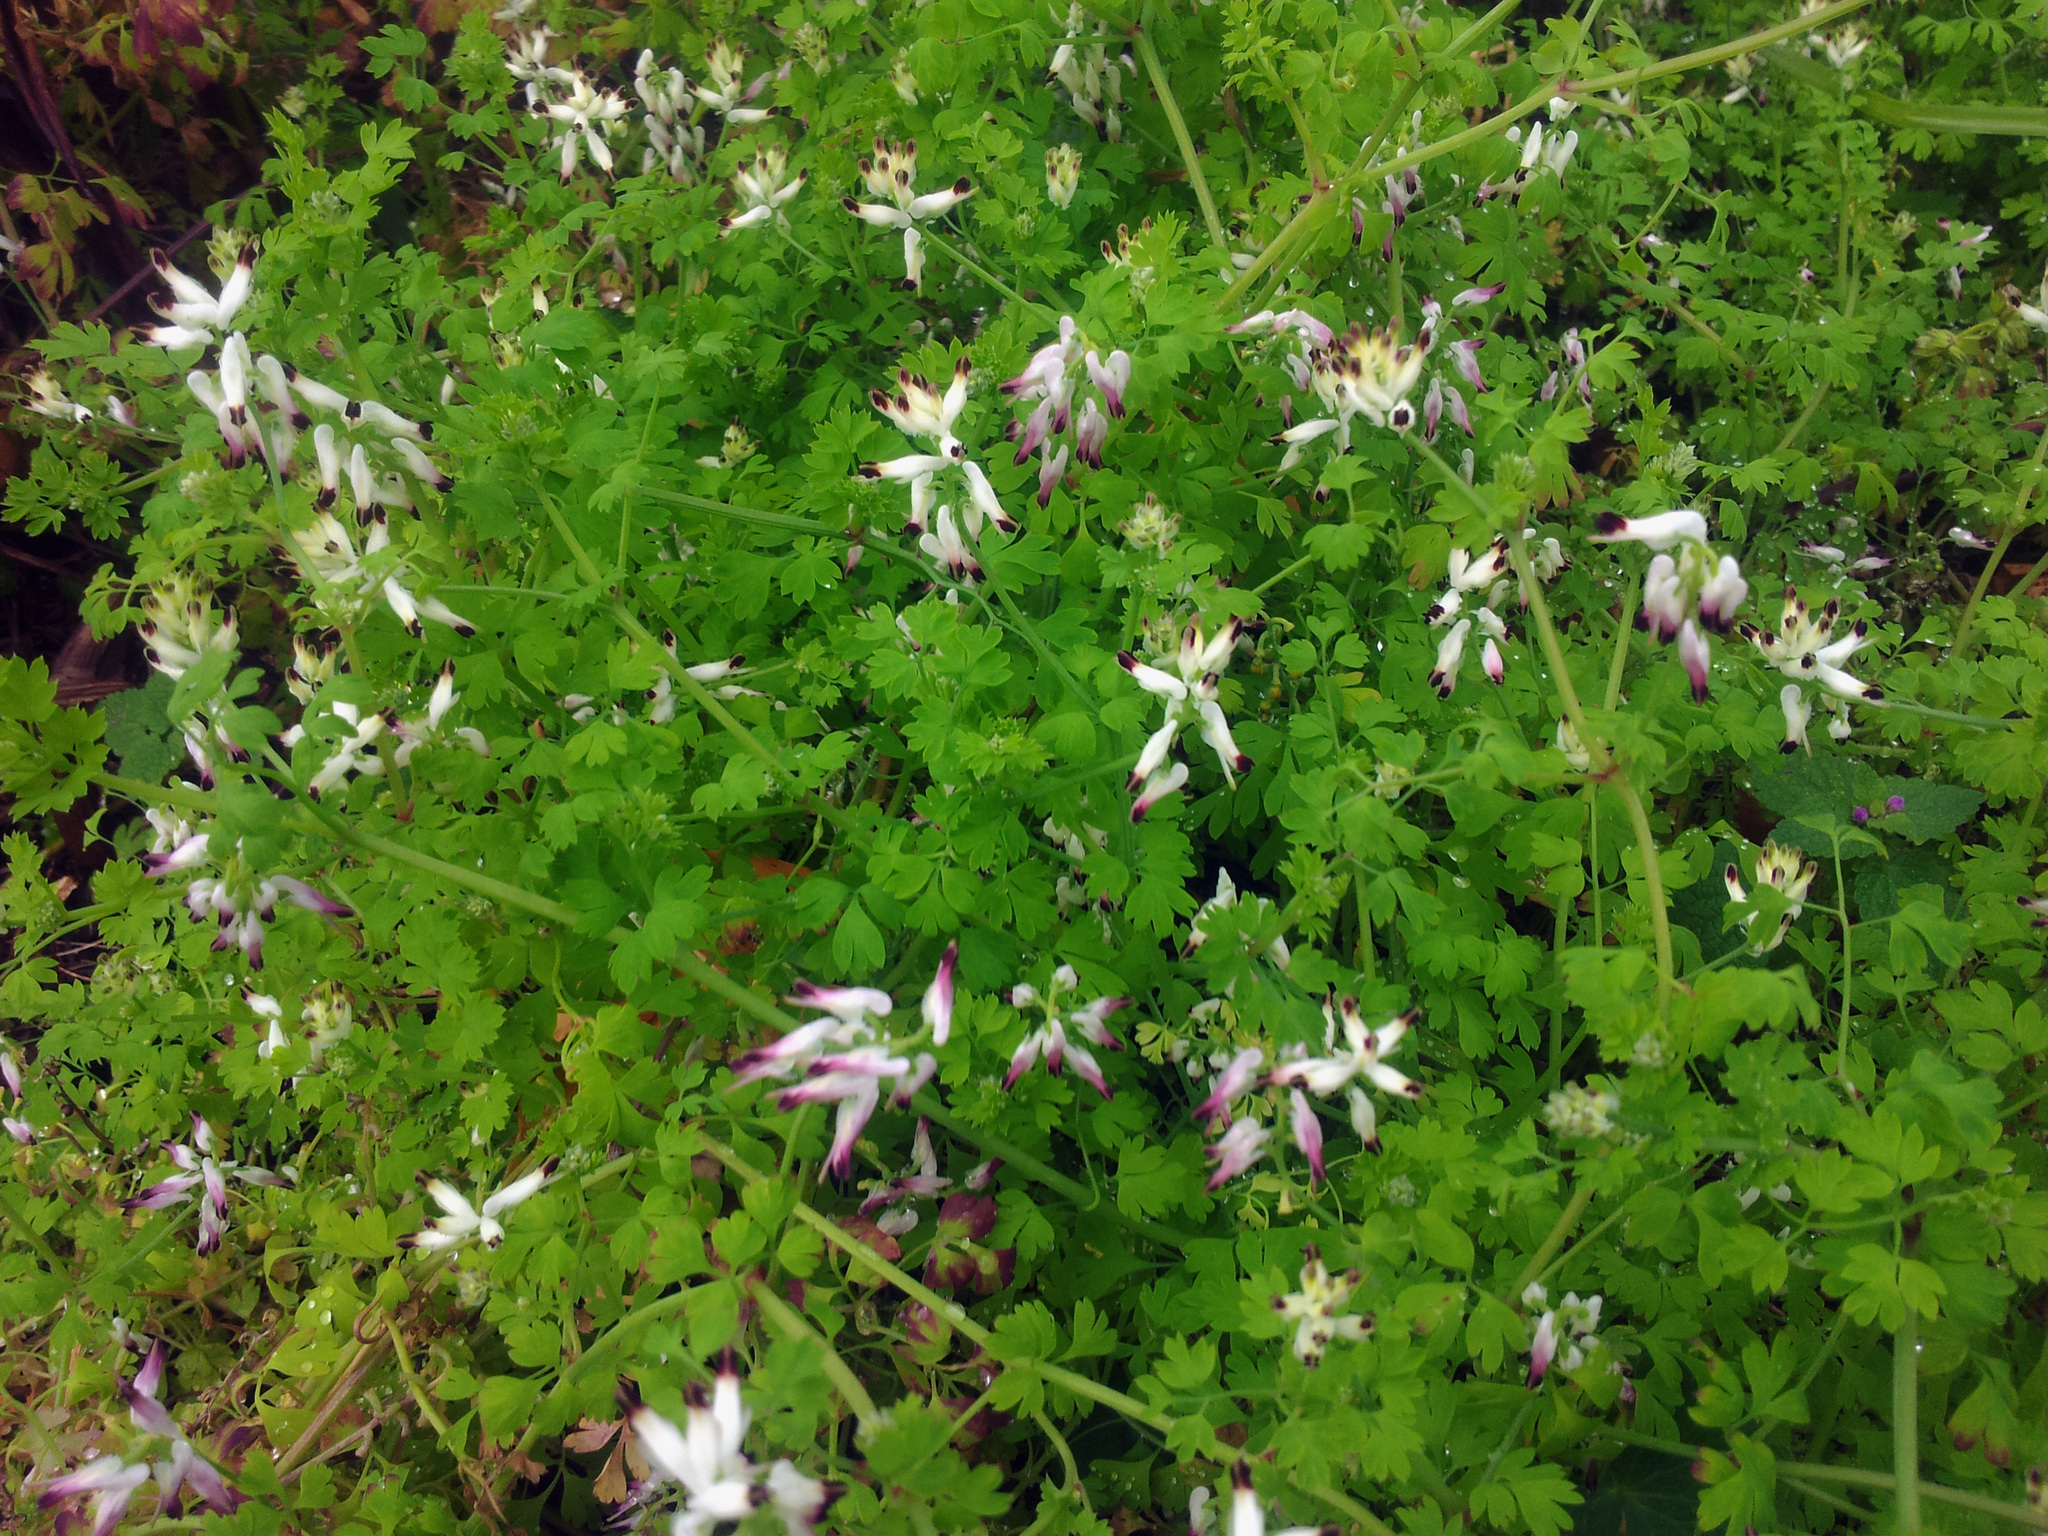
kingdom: Plantae
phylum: Tracheophyta
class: Magnoliopsida
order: Ranunculales
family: Papaveraceae
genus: Fumaria
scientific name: Fumaria capreolata
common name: White ramping-fumitory
